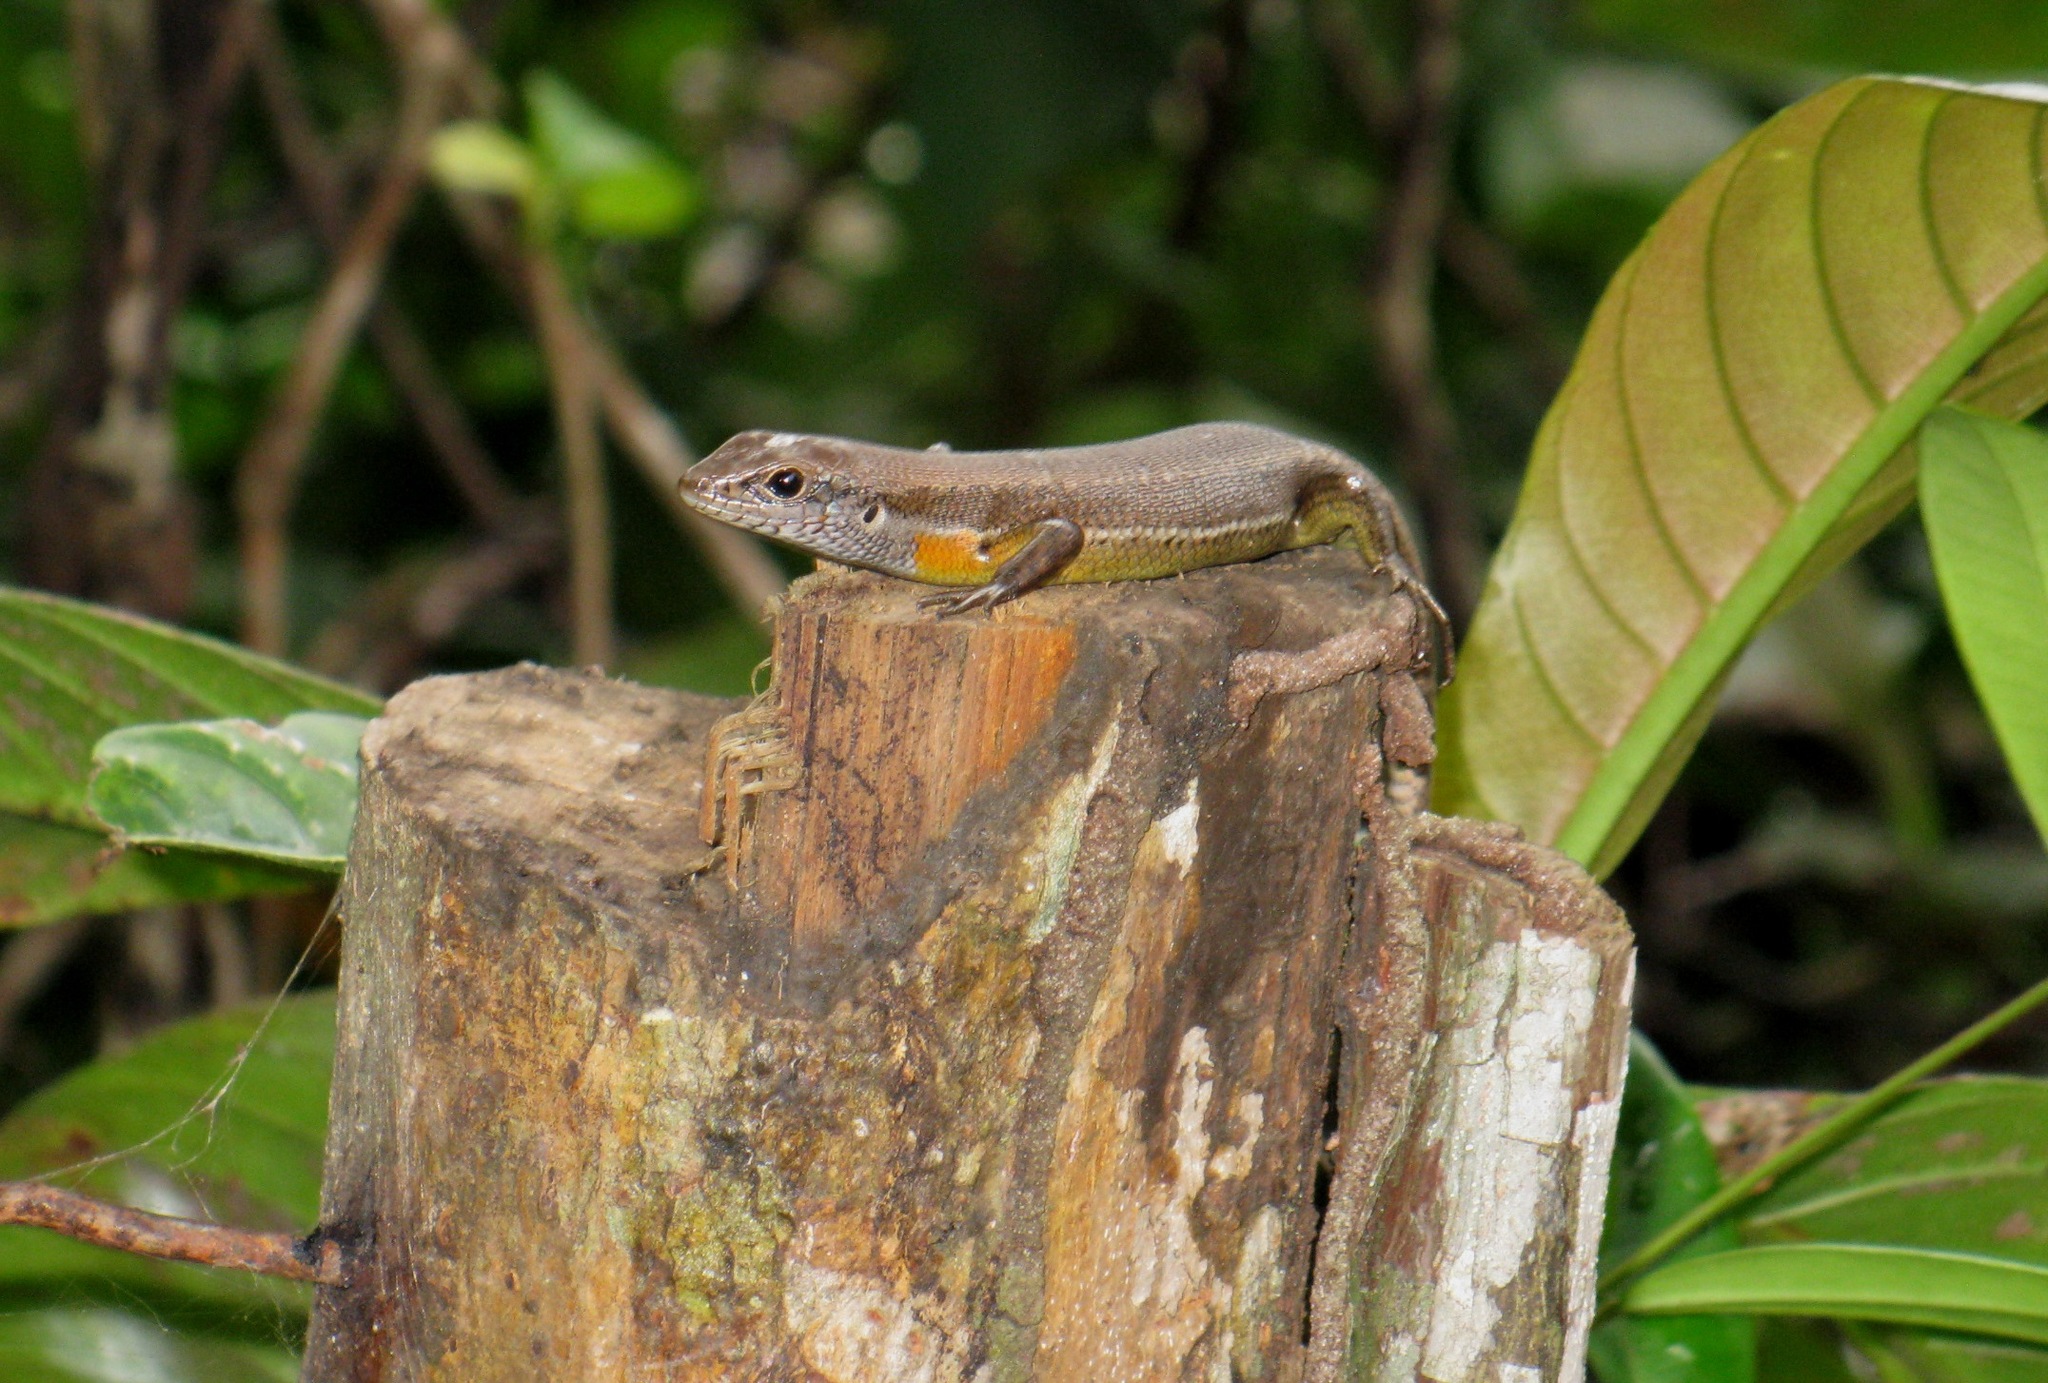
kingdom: Animalia
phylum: Chordata
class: Squamata
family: Scincidae
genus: Trachylepis
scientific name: Trachylepis albilabris
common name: Guinea mabuya
